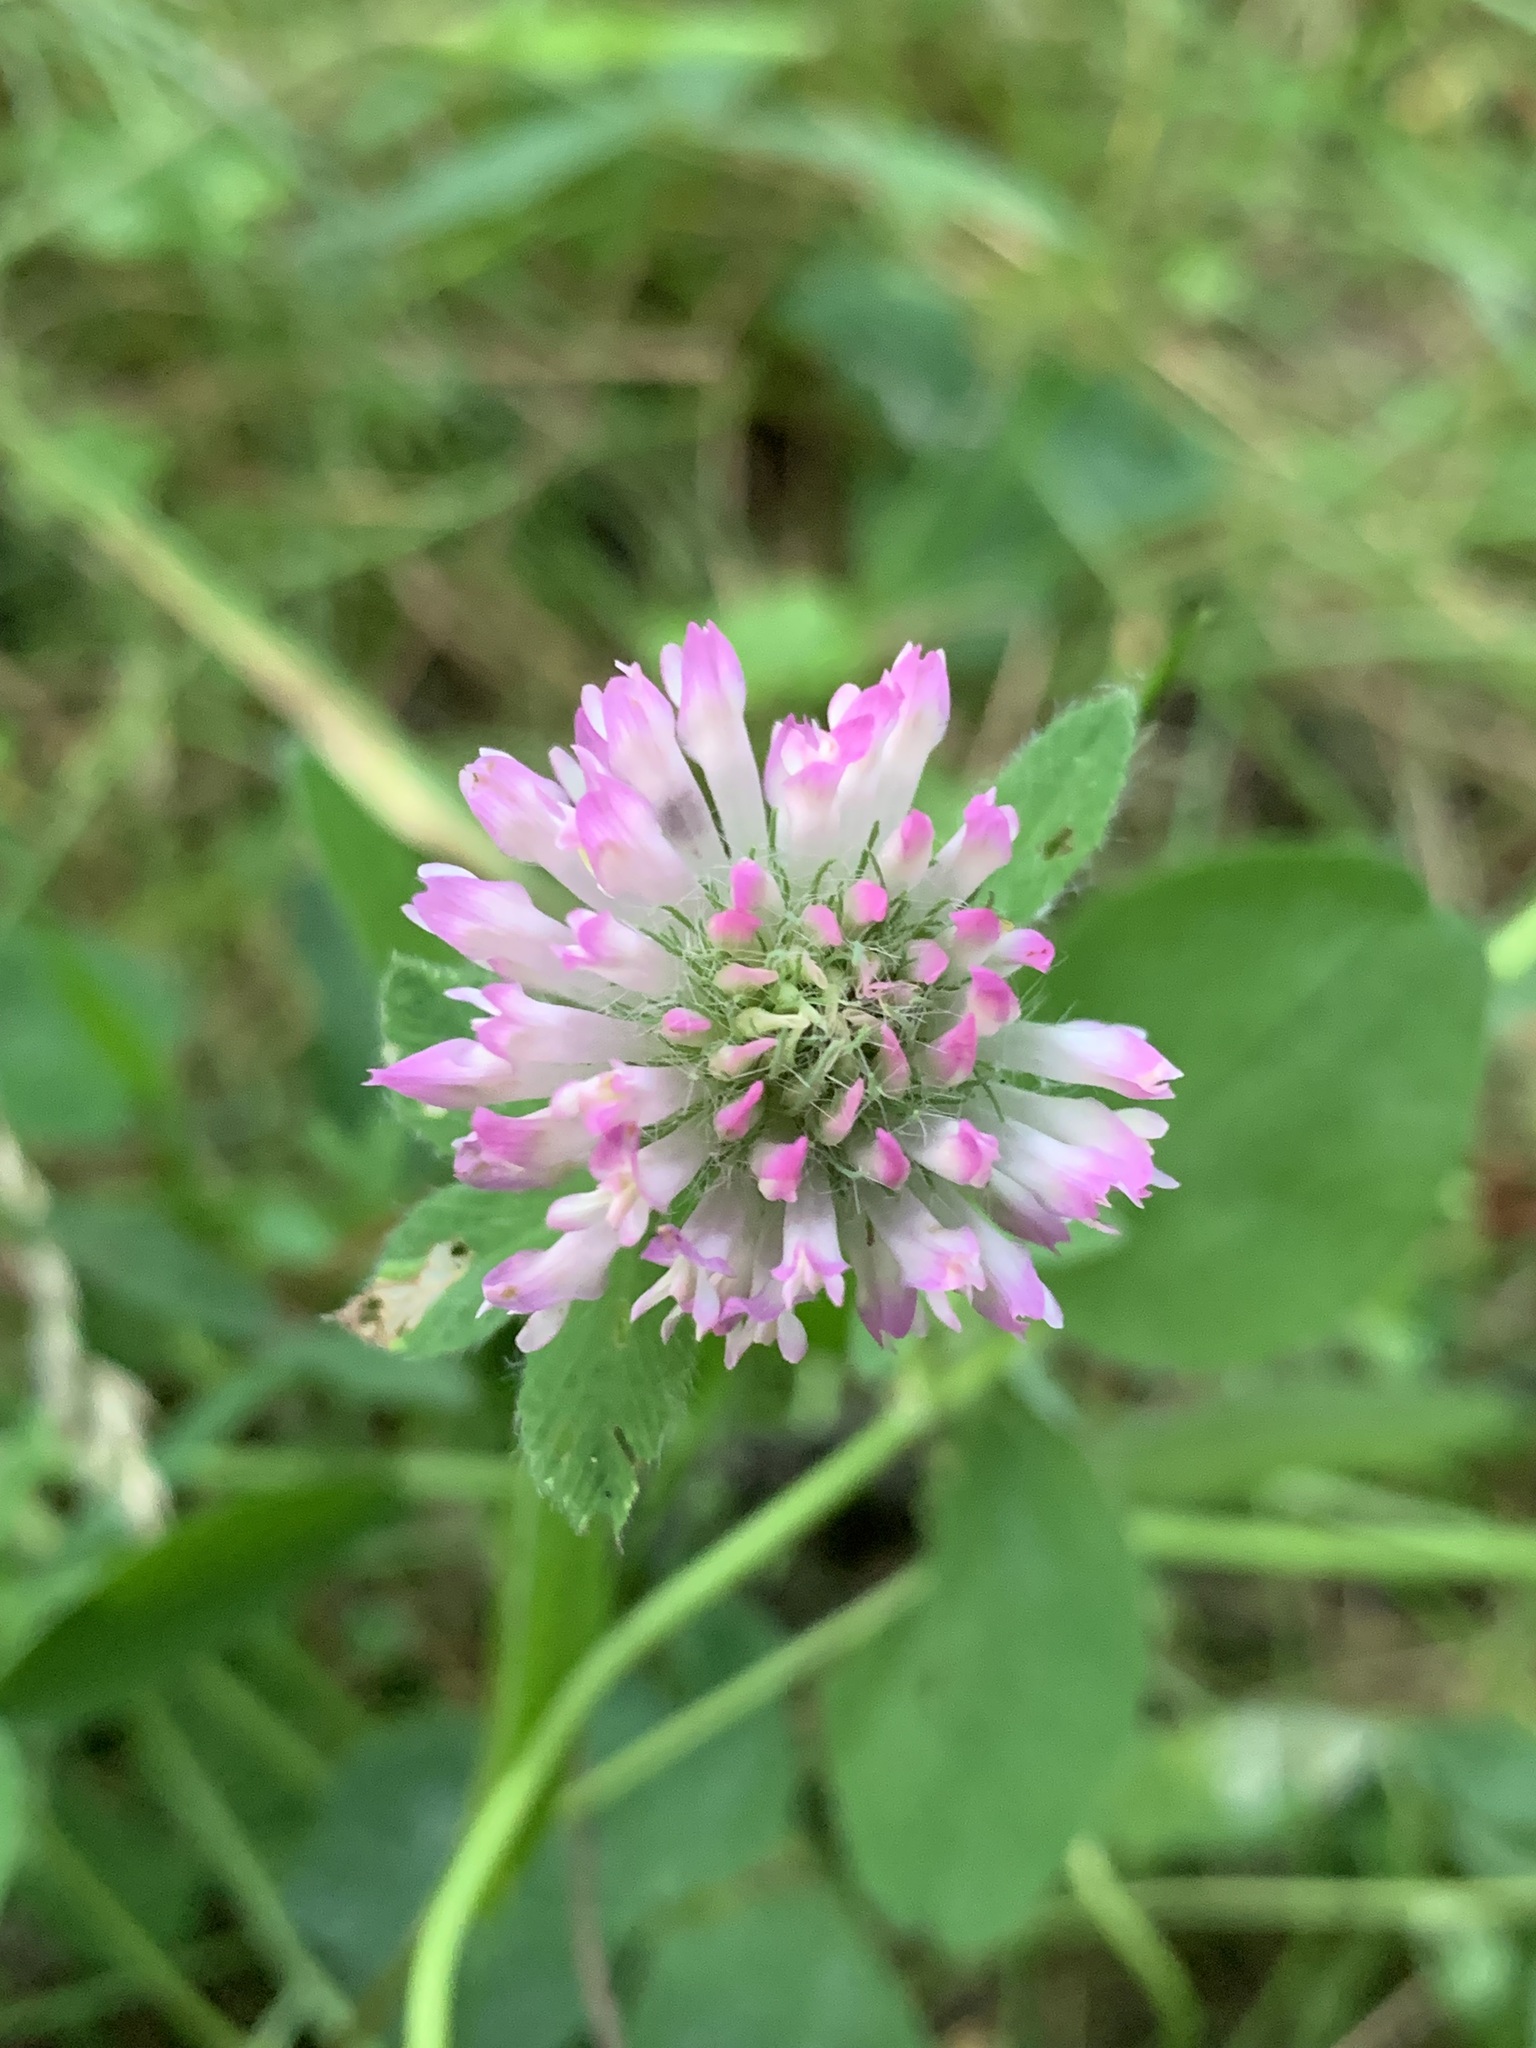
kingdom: Plantae
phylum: Tracheophyta
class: Magnoliopsida
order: Fabales
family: Fabaceae
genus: Trifolium
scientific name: Trifolium pratense
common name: Red clover
